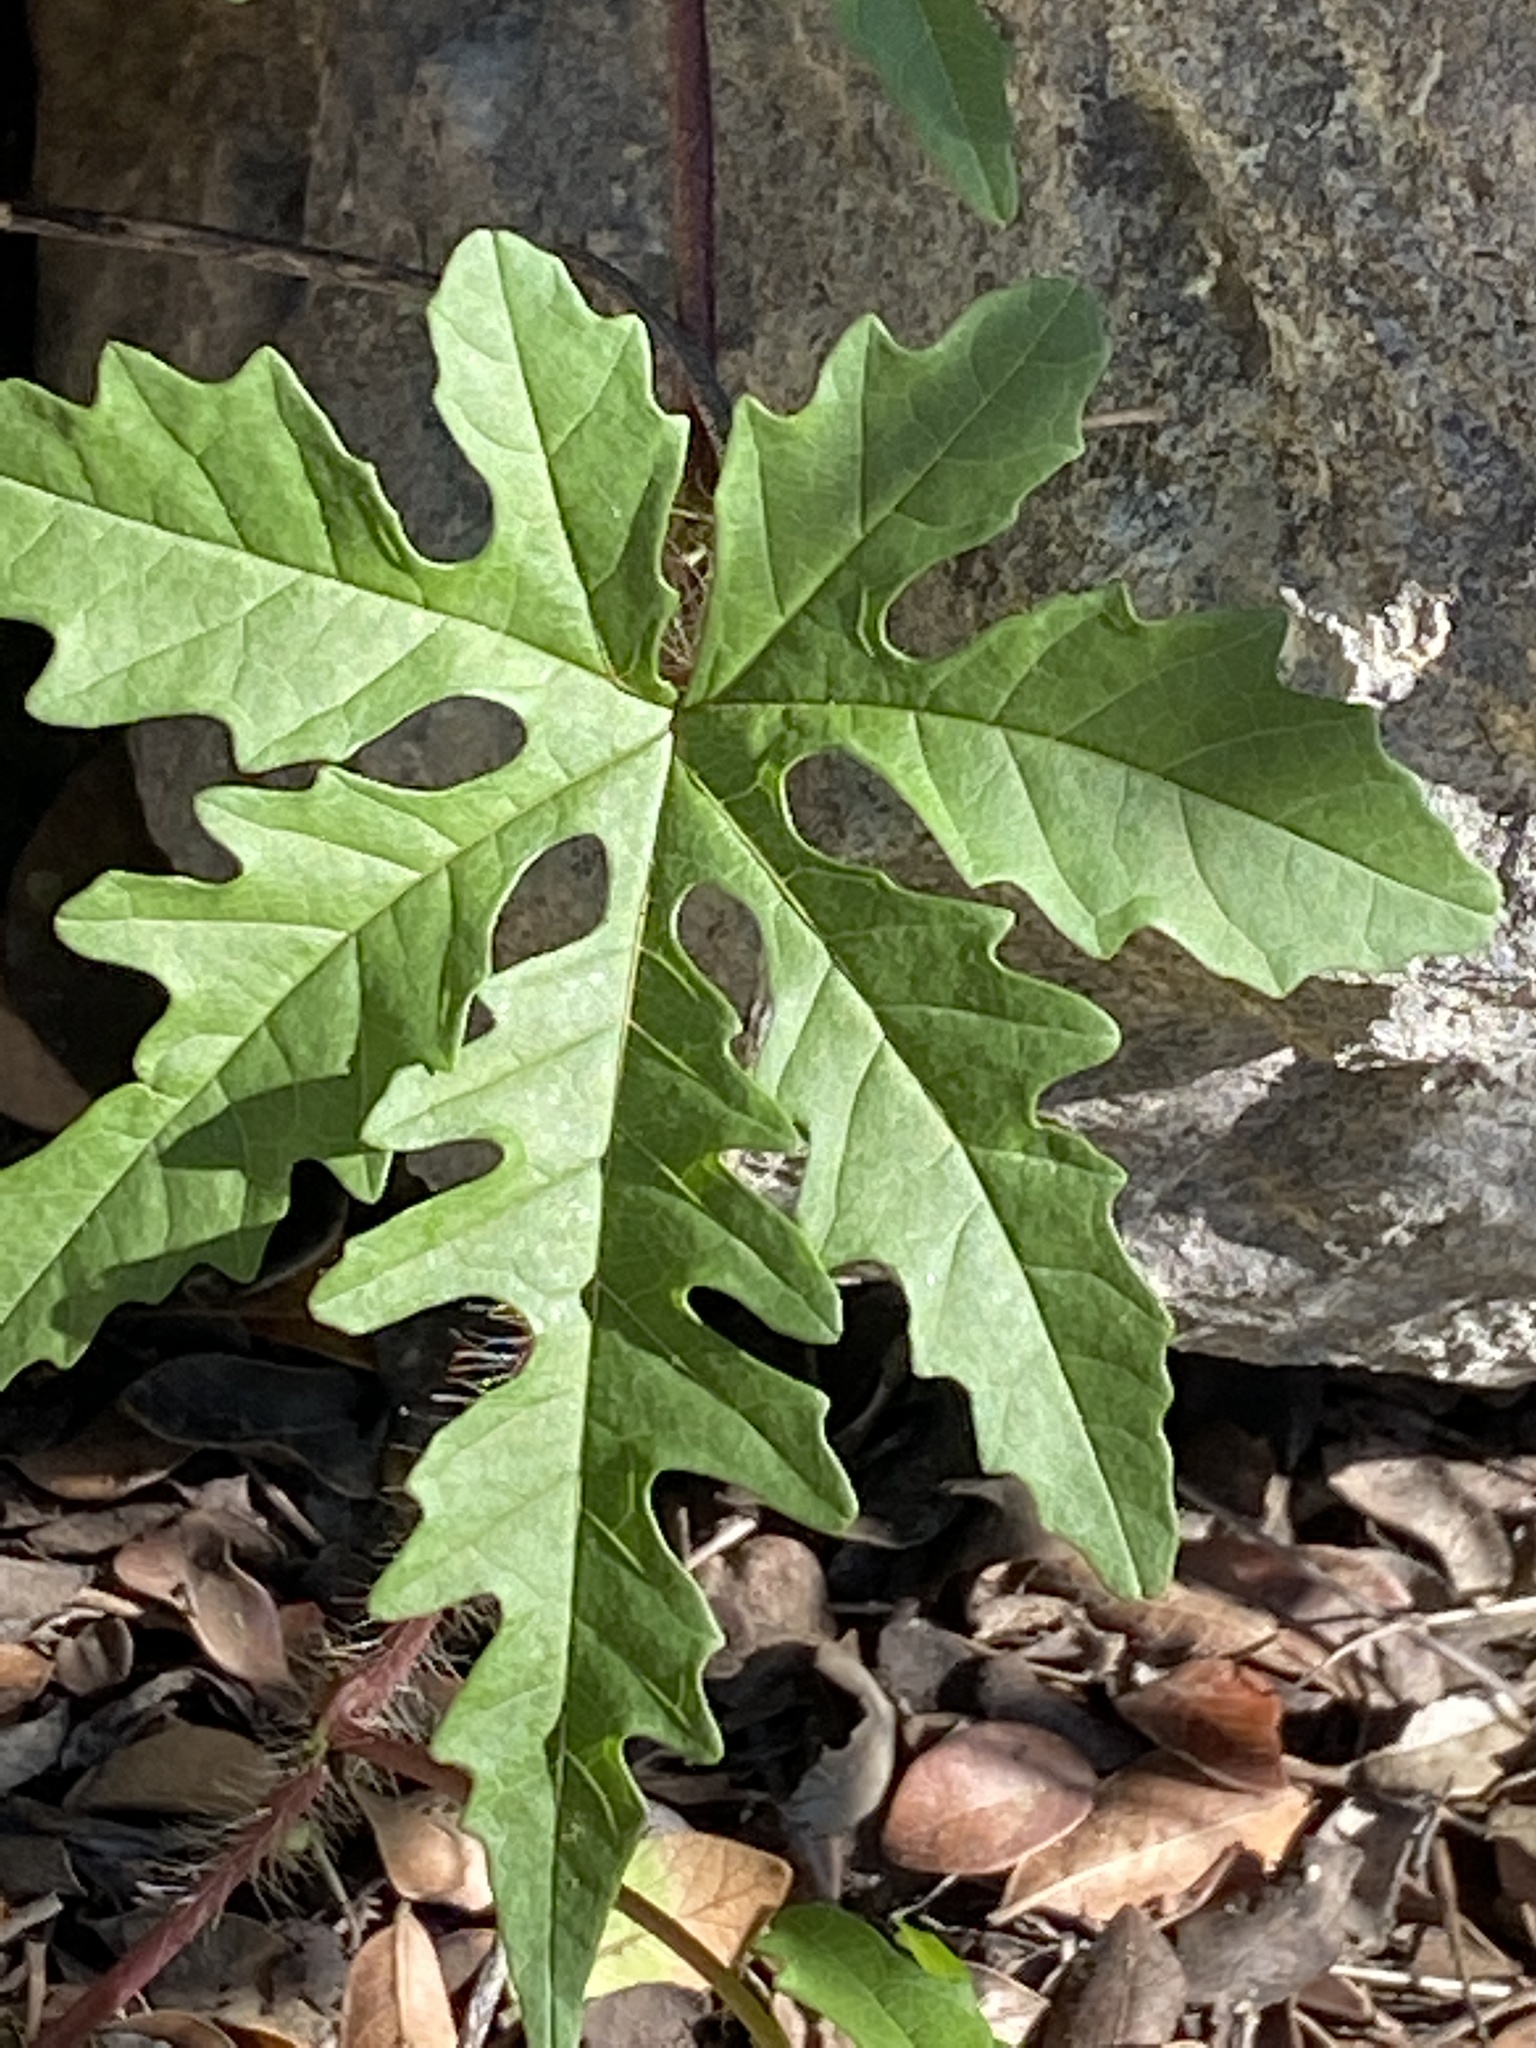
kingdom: Plantae
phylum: Tracheophyta
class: Magnoliopsida
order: Solanales
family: Convolvulaceae
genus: Distimake
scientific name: Distimake dissectus
